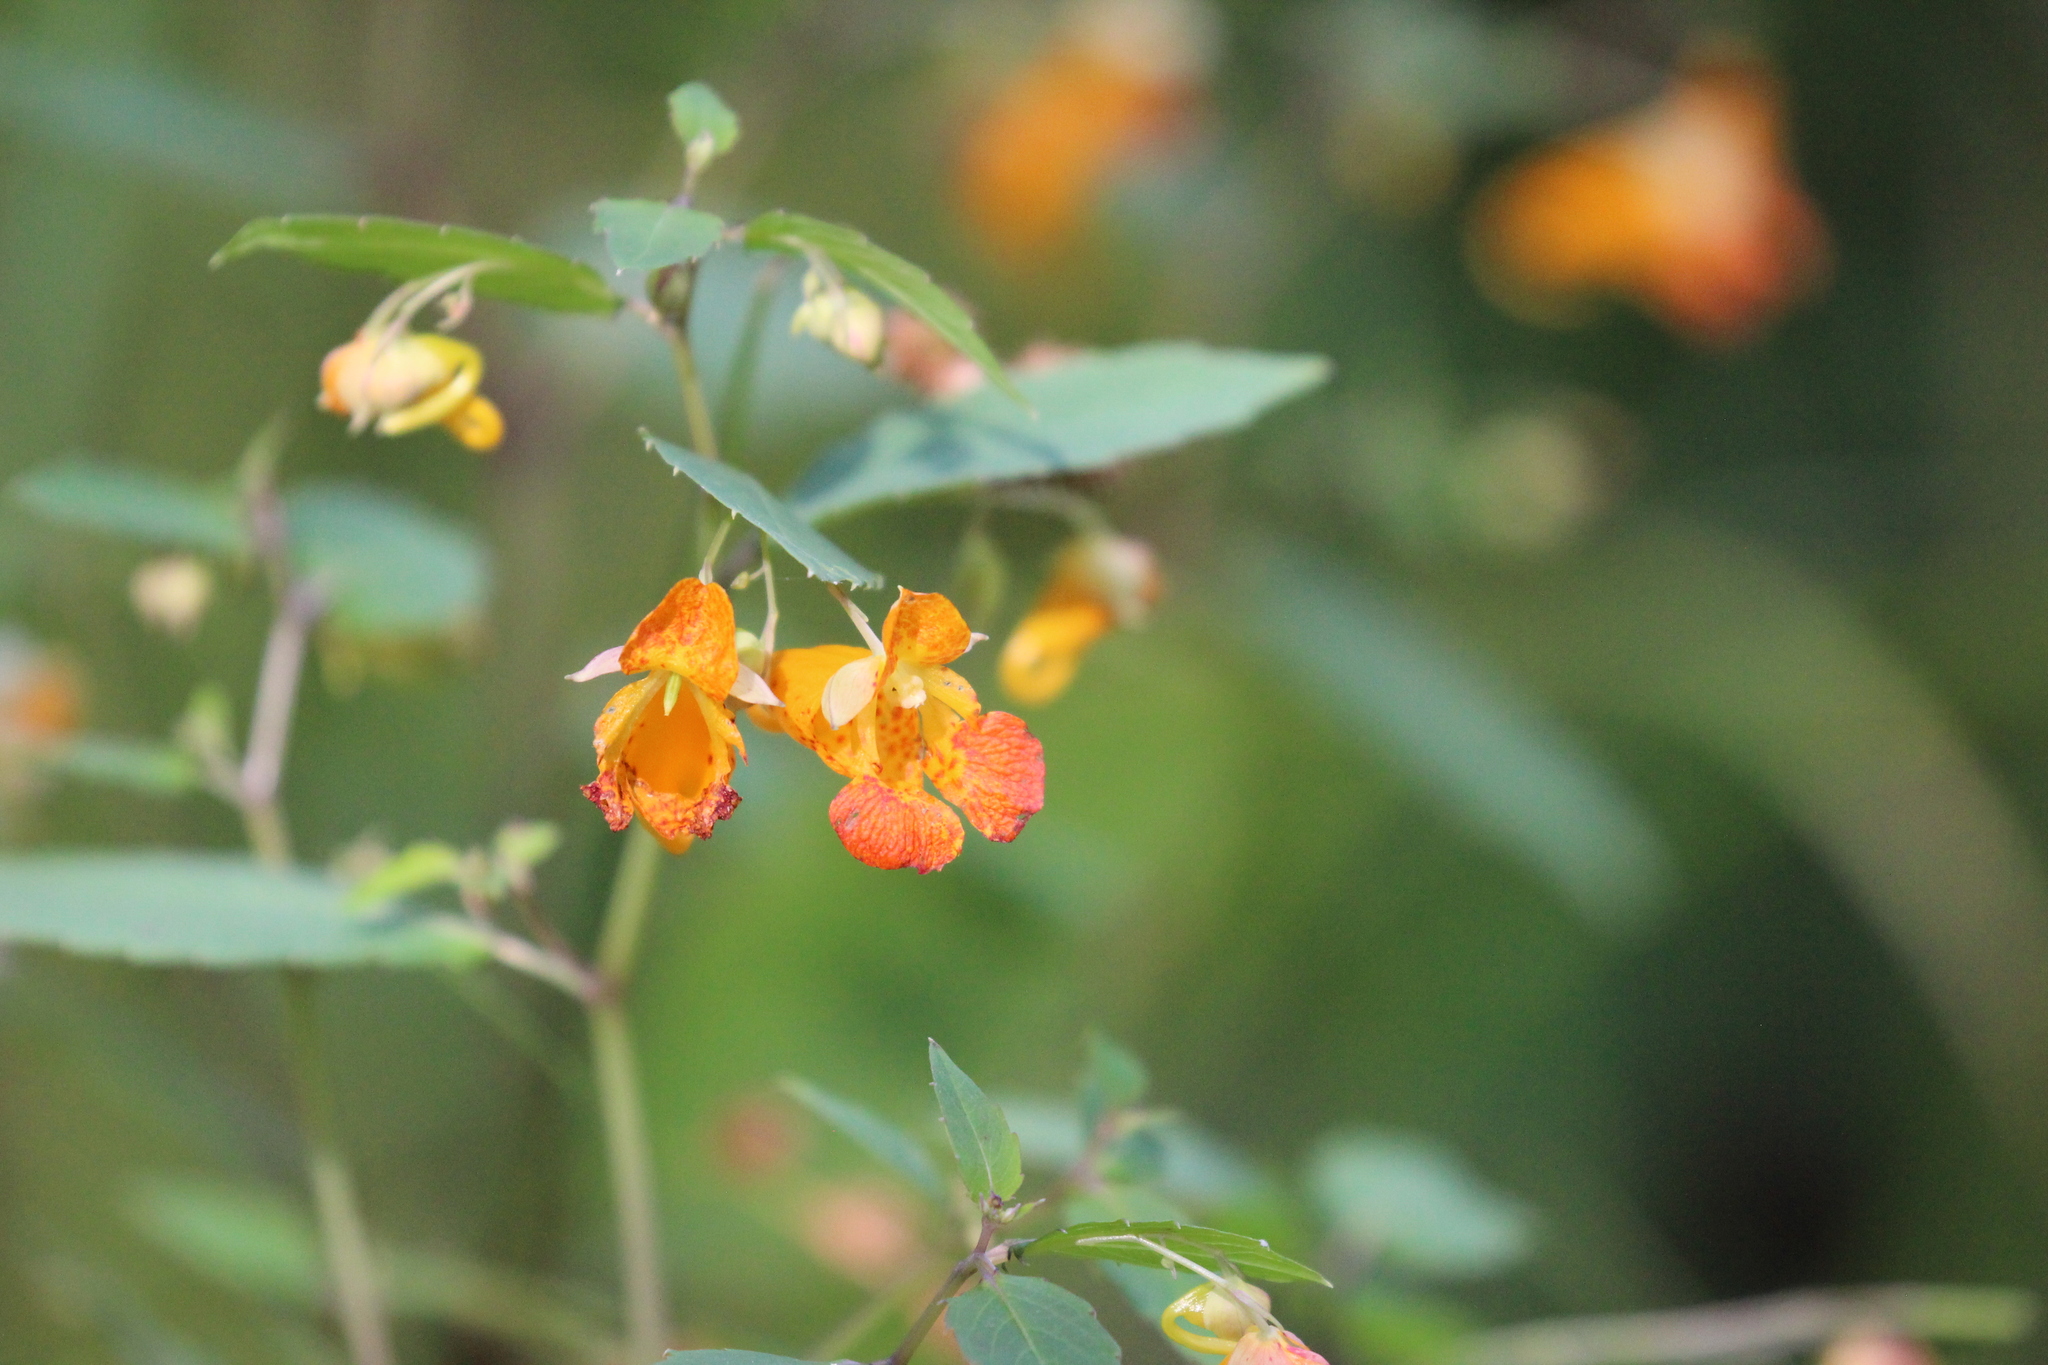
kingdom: Plantae
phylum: Tracheophyta
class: Magnoliopsida
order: Ericales
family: Balsaminaceae
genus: Impatiens
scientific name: Impatiens capensis
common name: Orange balsam
